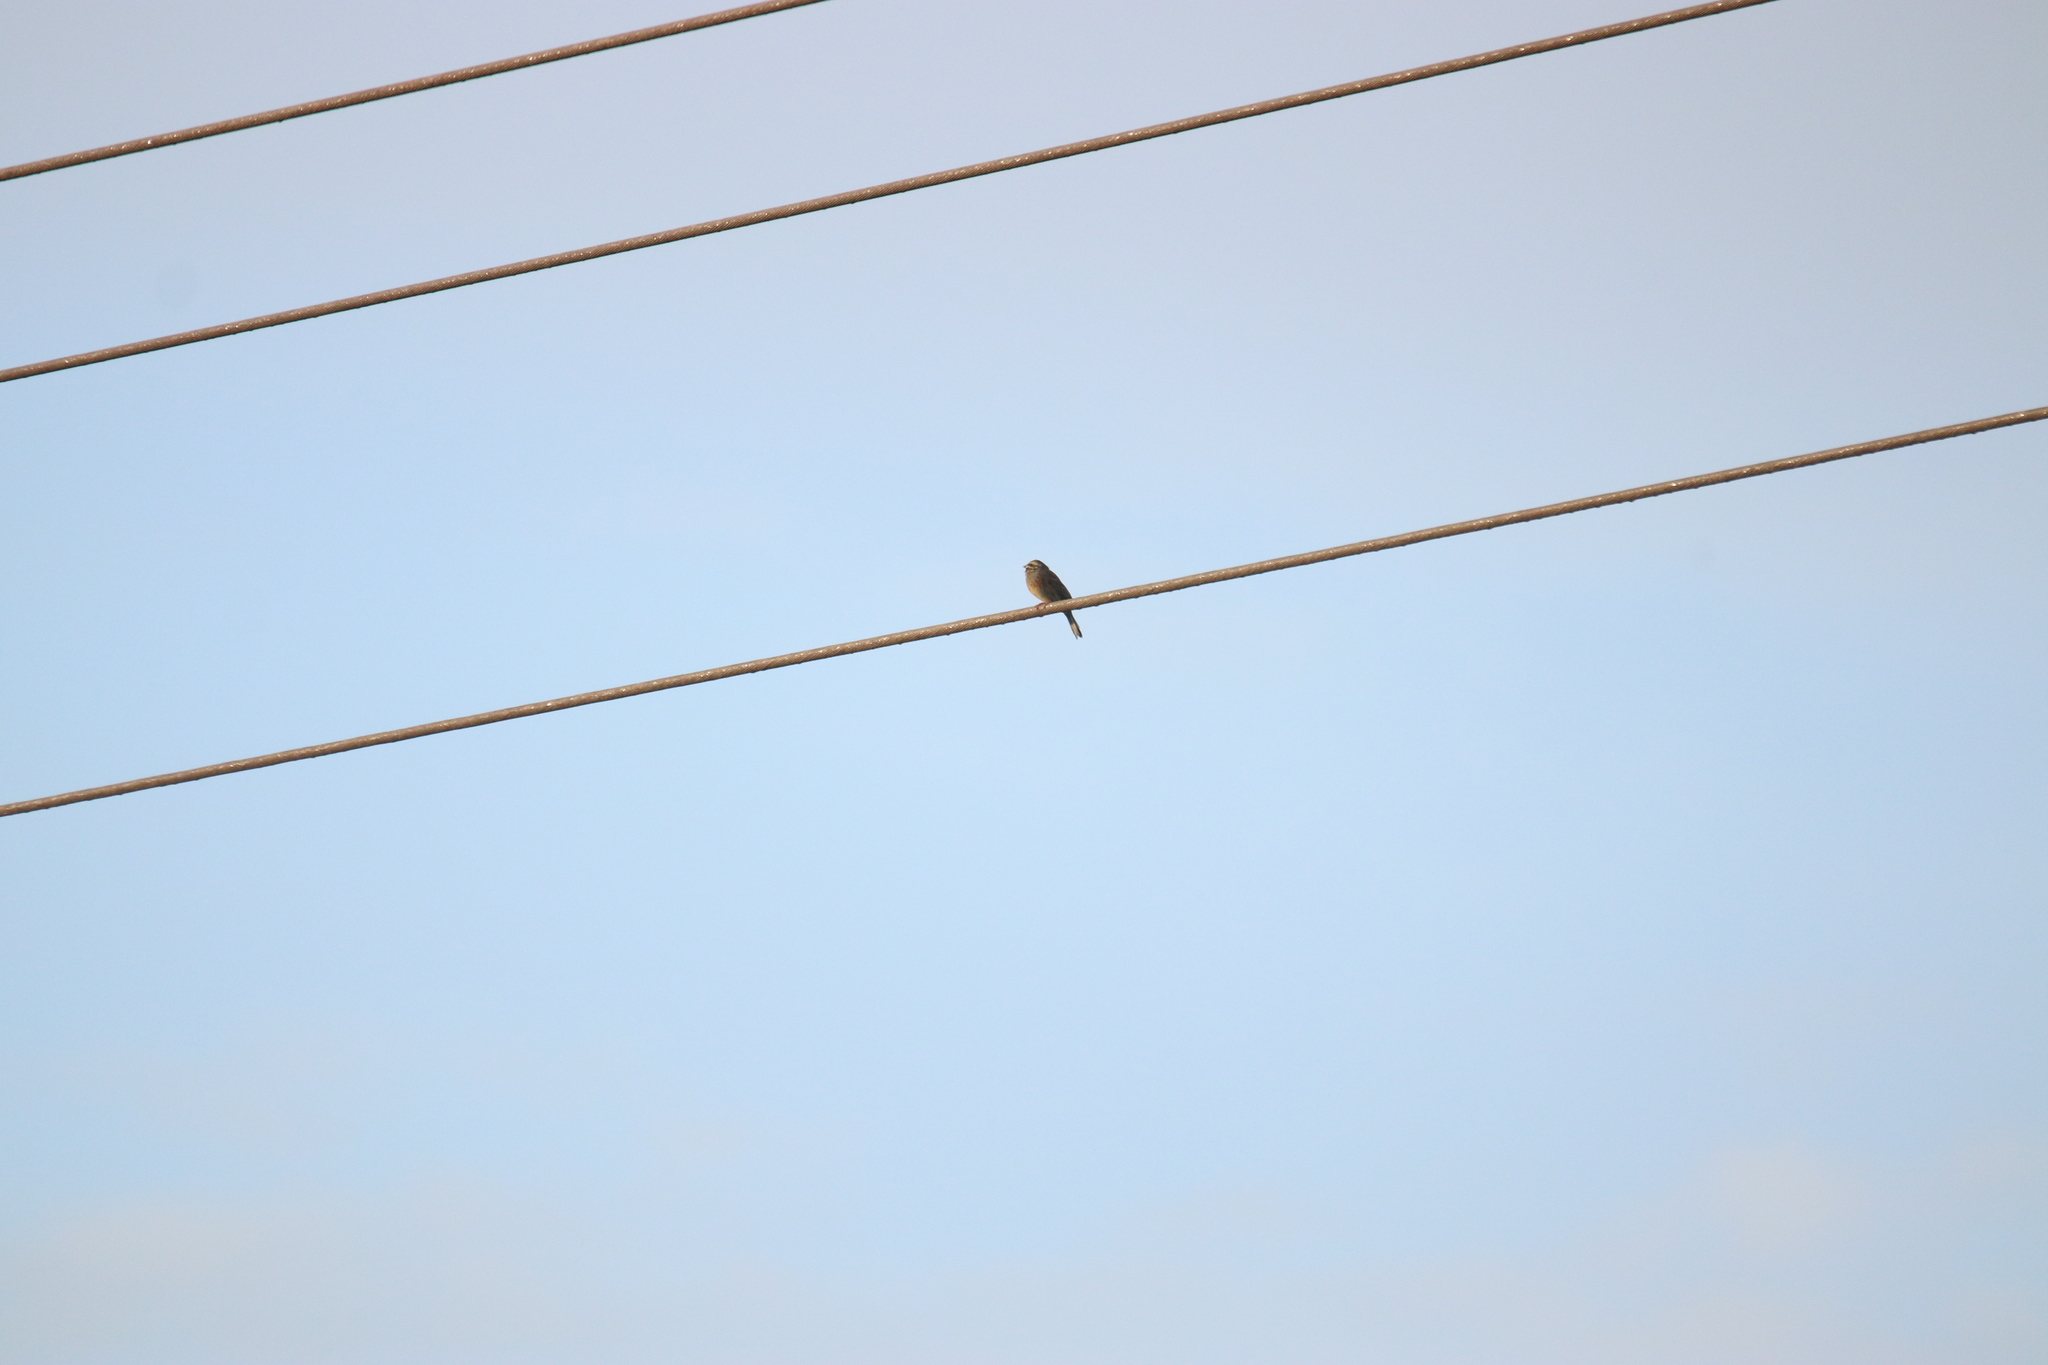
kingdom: Animalia
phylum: Chordata
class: Aves
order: Passeriformes
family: Emberizidae
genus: Emberiza
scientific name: Emberiza cirlus
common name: Cirl bunting
